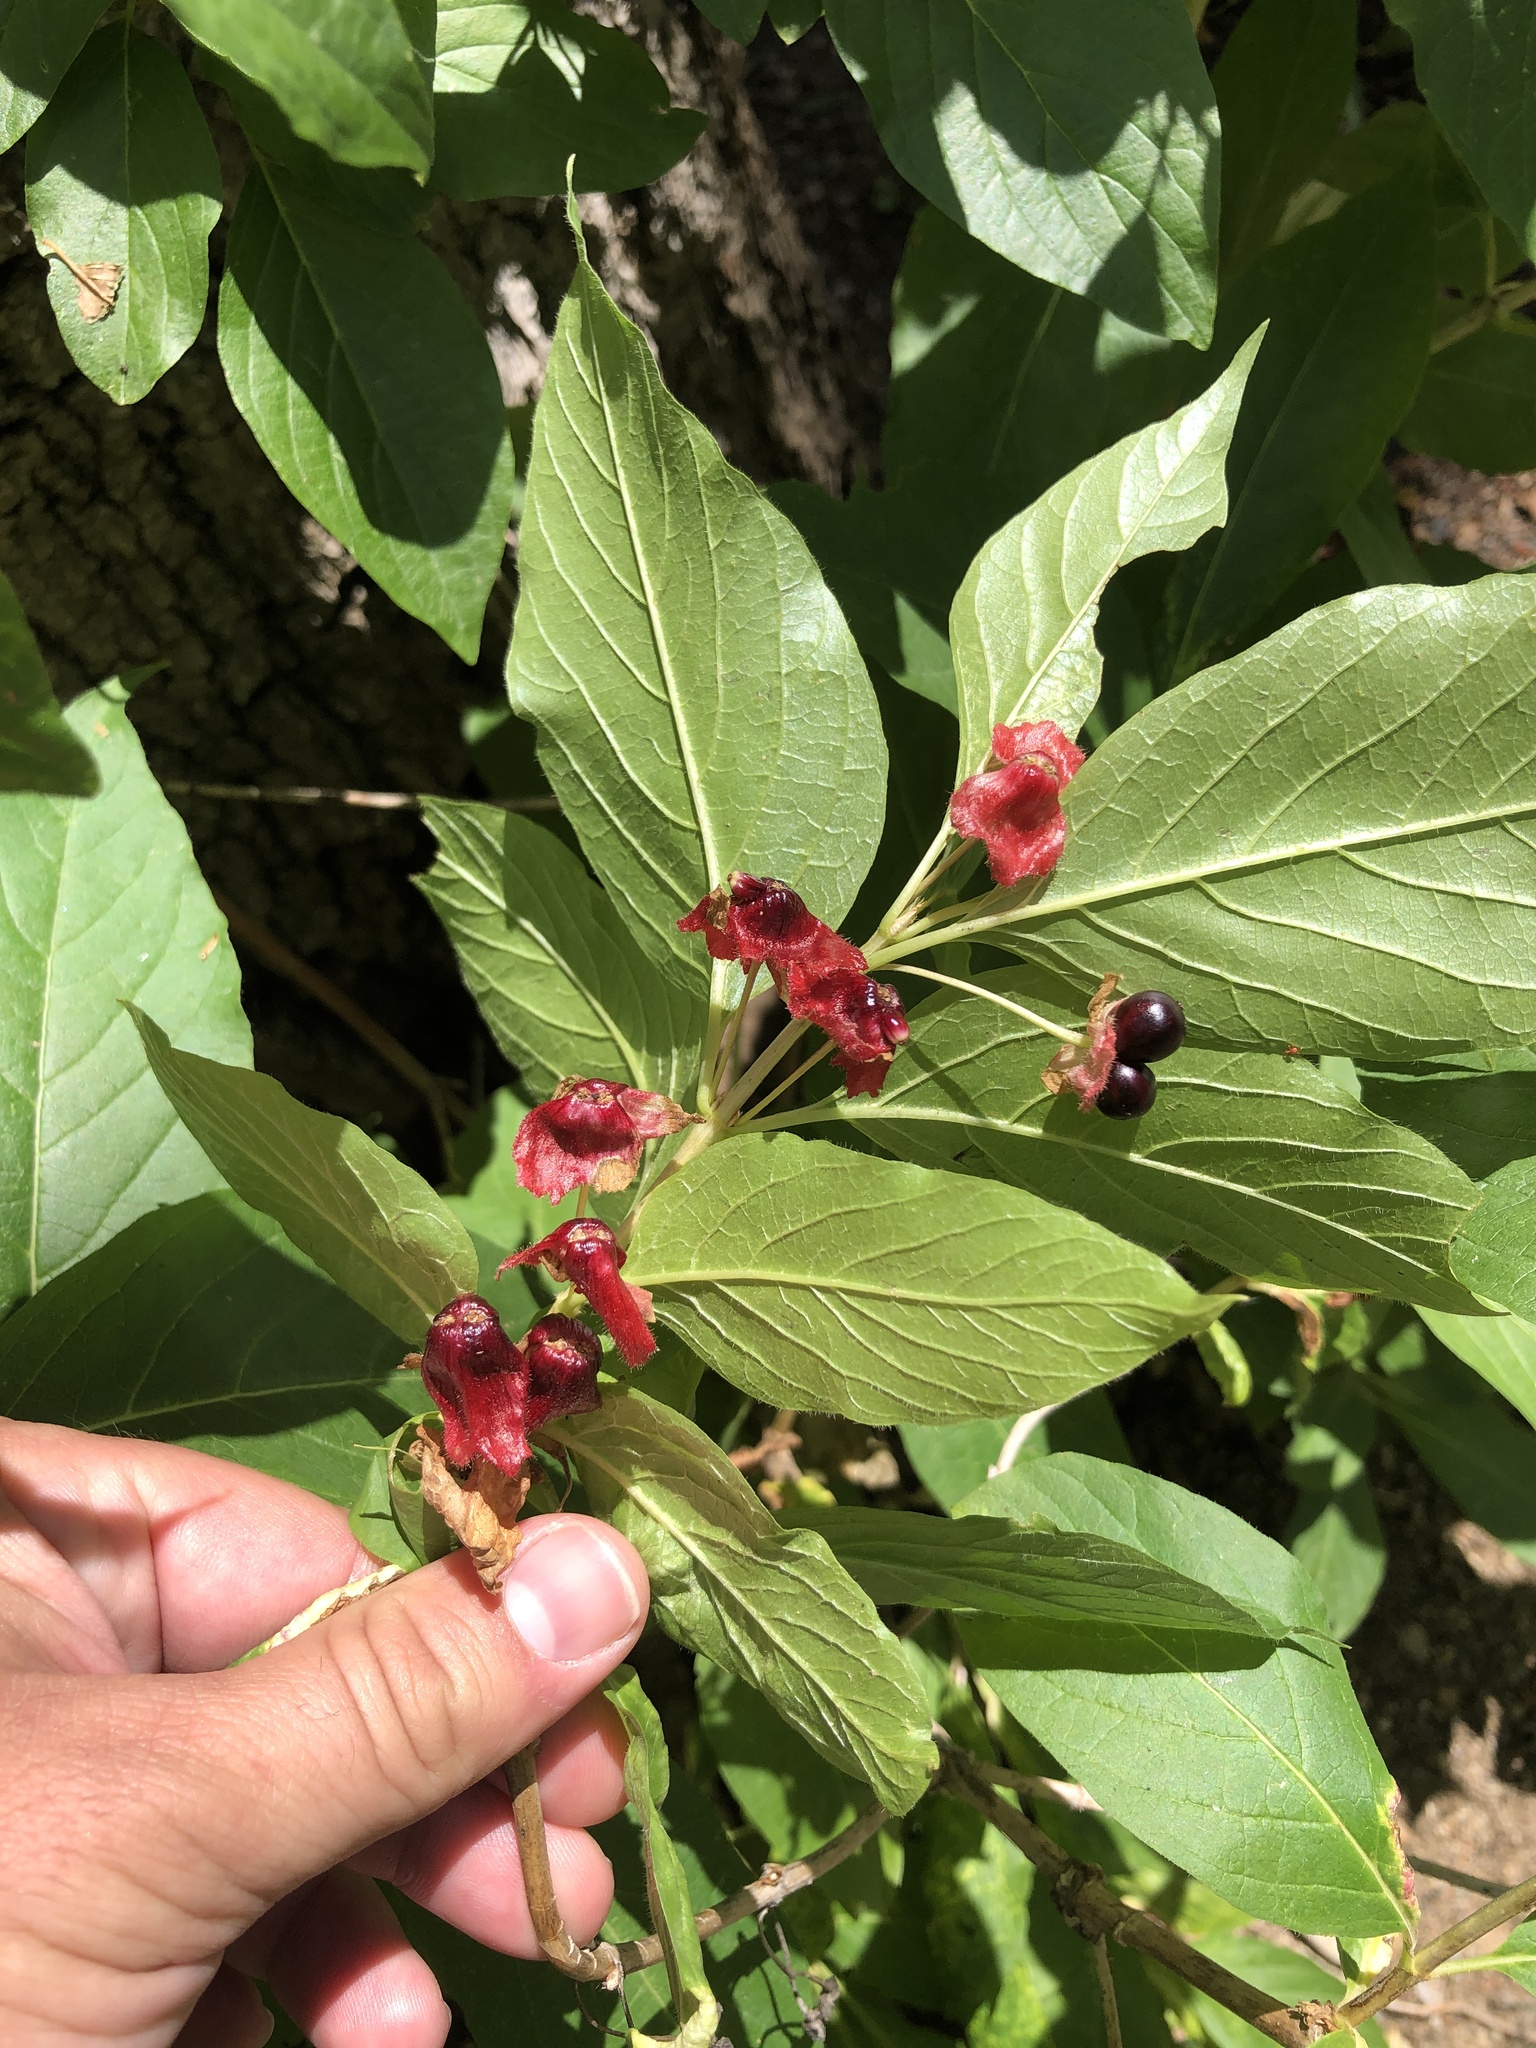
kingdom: Plantae
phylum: Tracheophyta
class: Magnoliopsida
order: Dipsacales
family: Caprifoliaceae
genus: Lonicera
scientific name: Lonicera involucrata
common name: Californian honeysuckle
